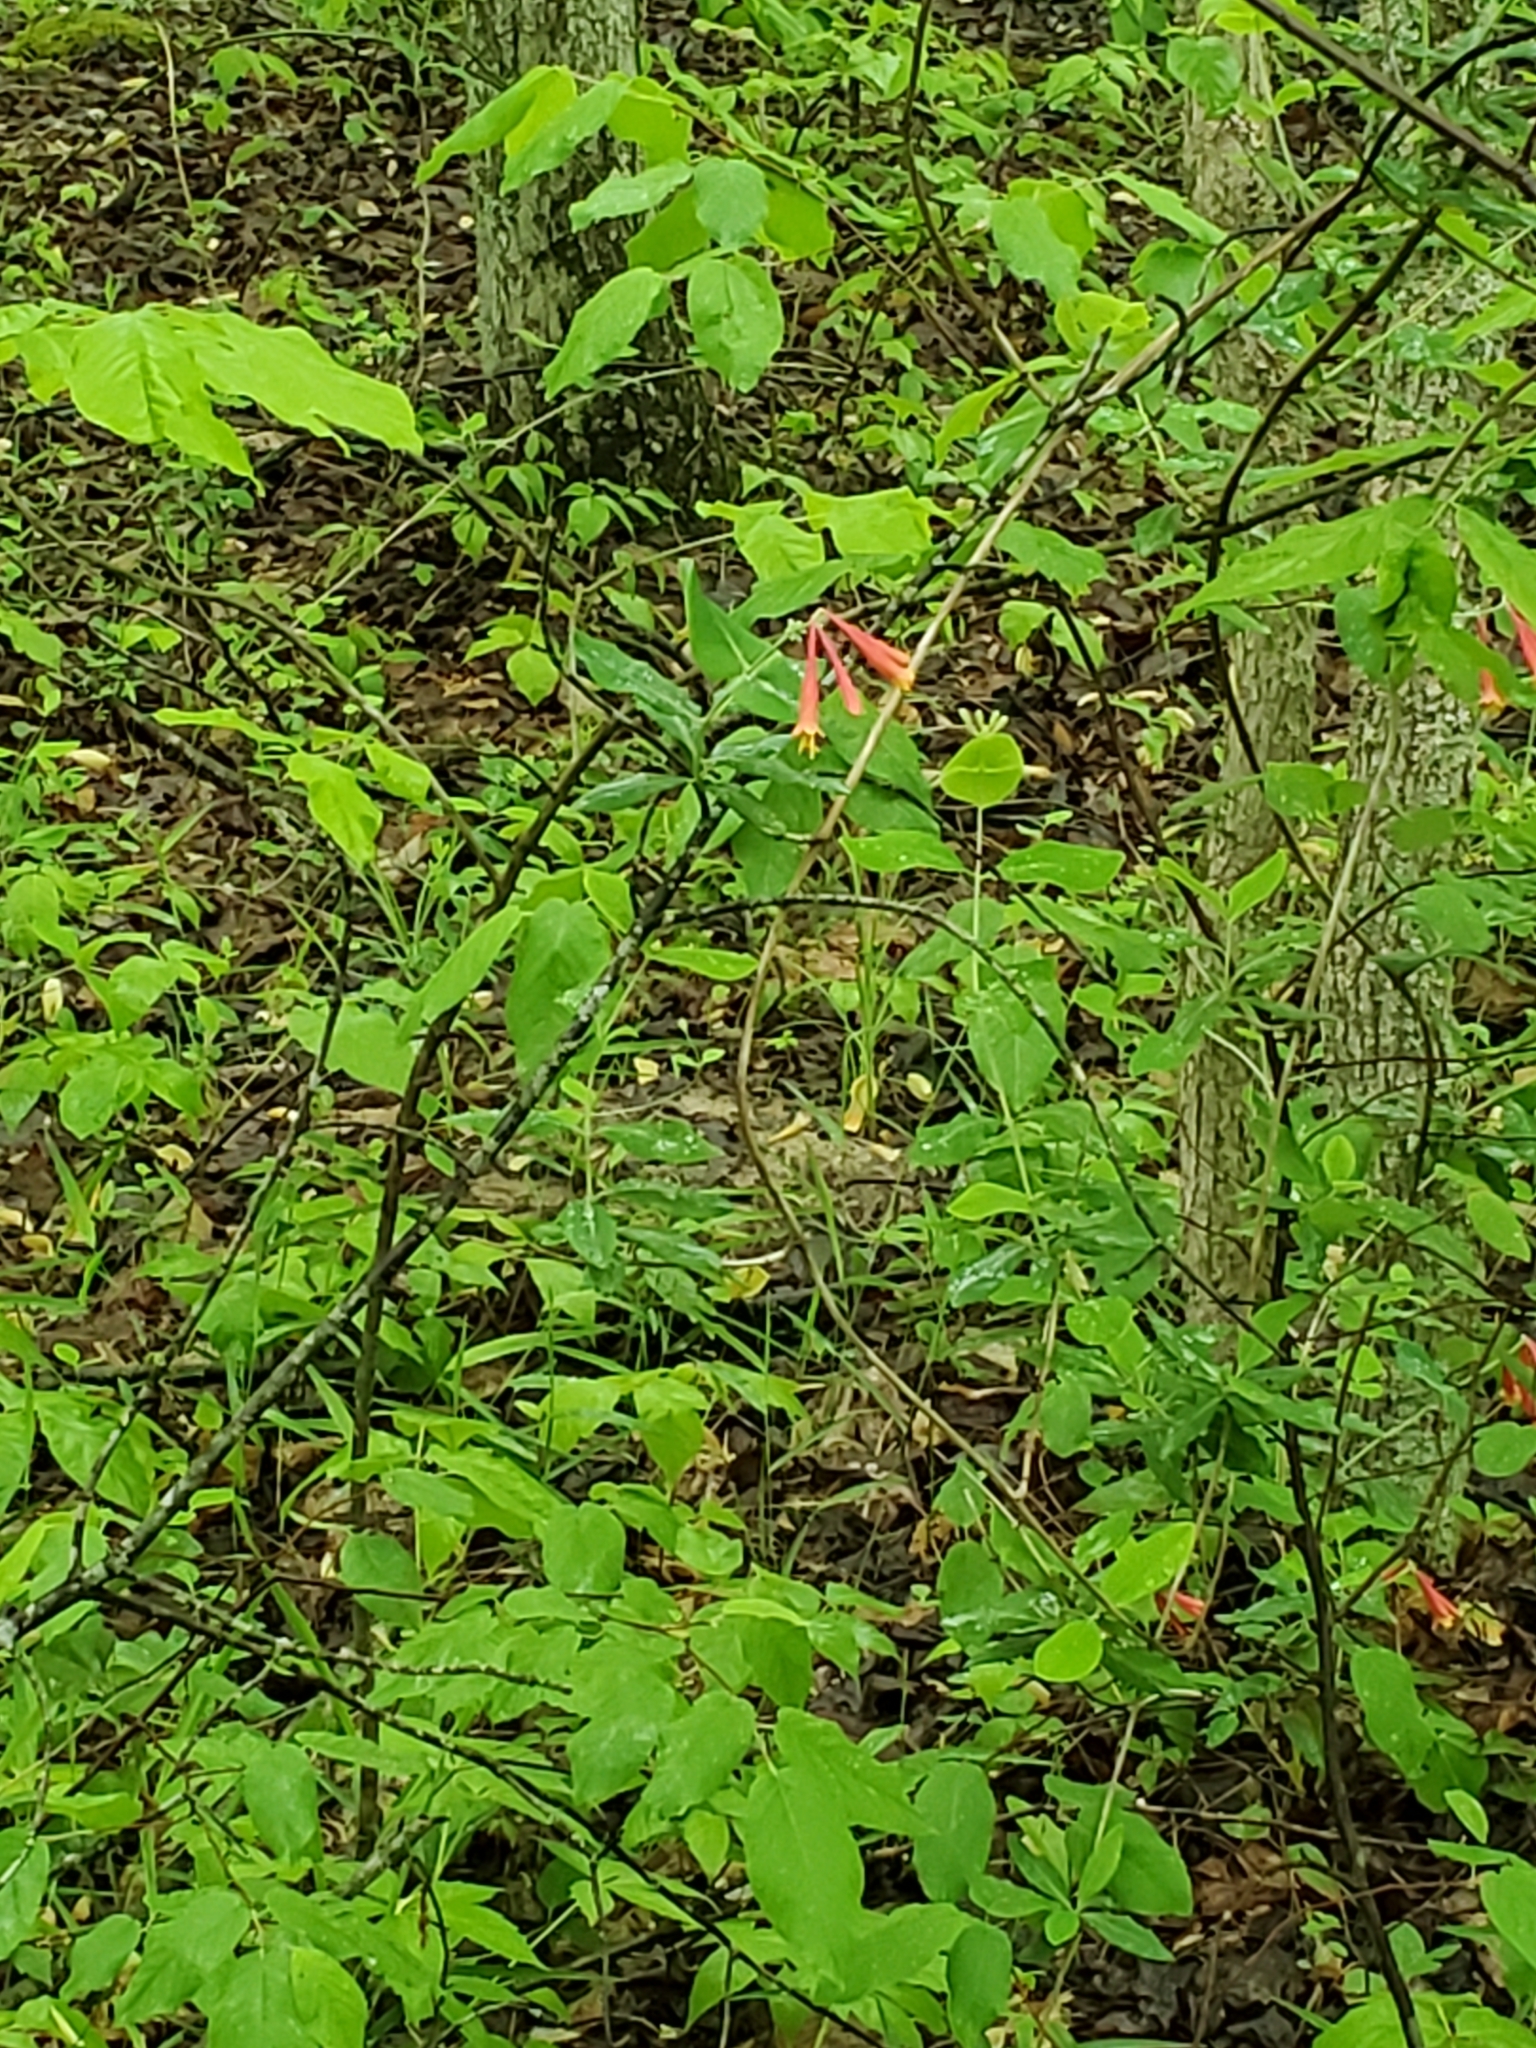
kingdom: Plantae
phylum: Tracheophyta
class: Magnoliopsida
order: Dipsacales
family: Caprifoliaceae
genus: Lonicera
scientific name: Lonicera sempervirens
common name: Coral honeysuckle
